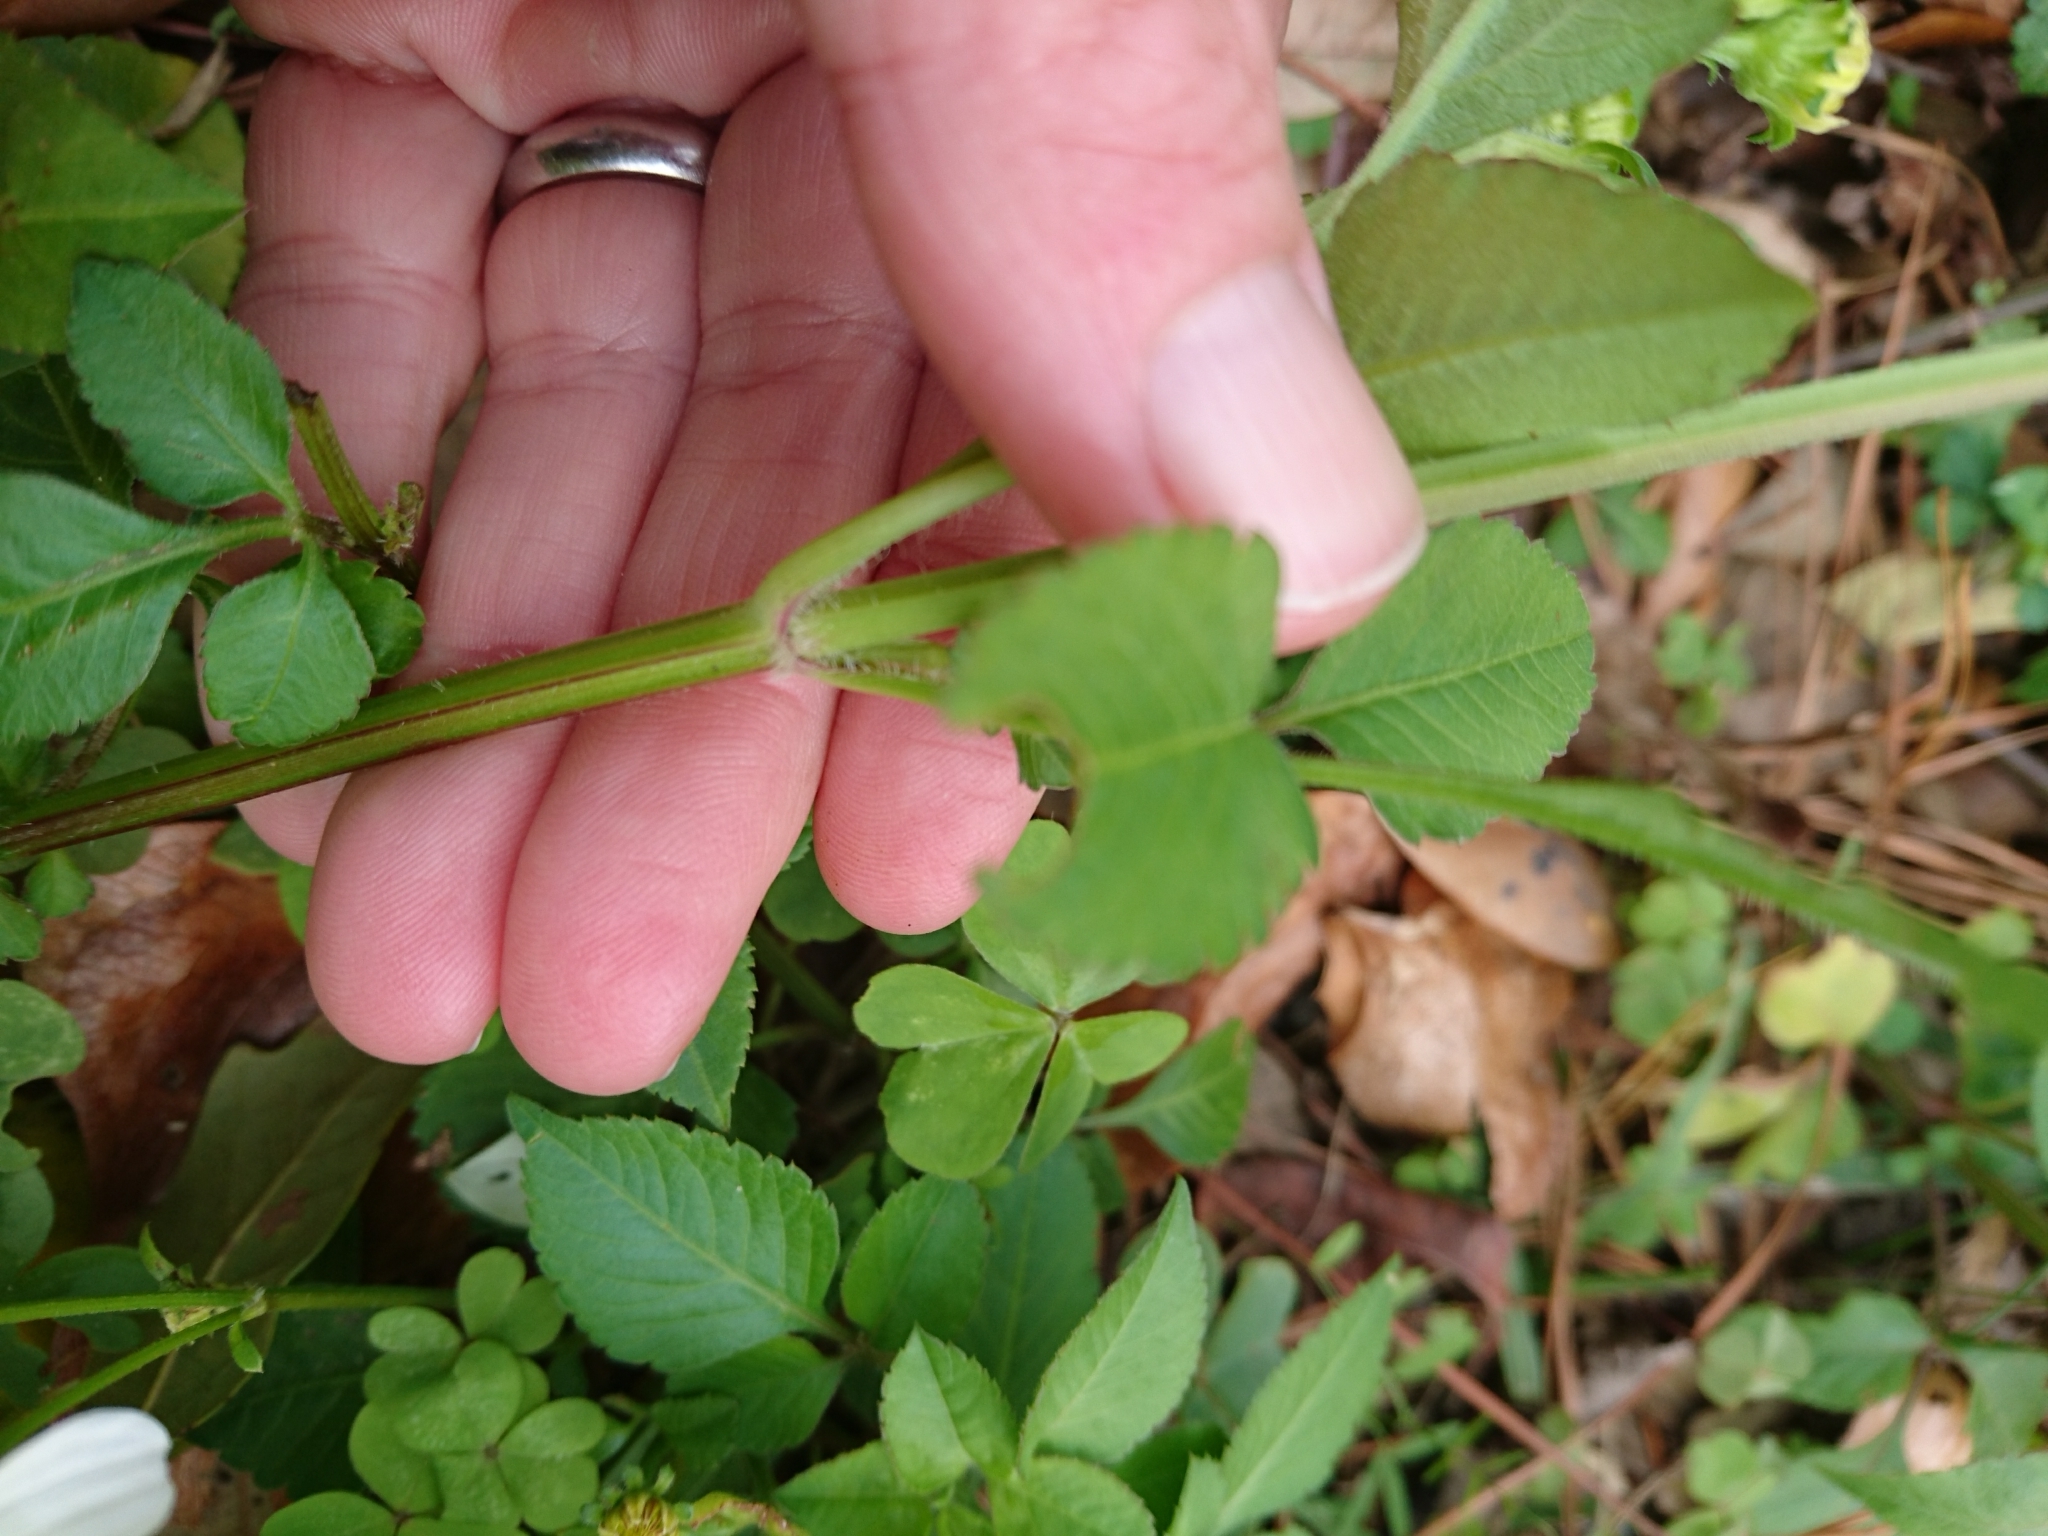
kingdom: Plantae
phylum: Tracheophyta
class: Magnoliopsida
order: Asterales
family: Asteraceae
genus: Bidens
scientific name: Bidens alba
